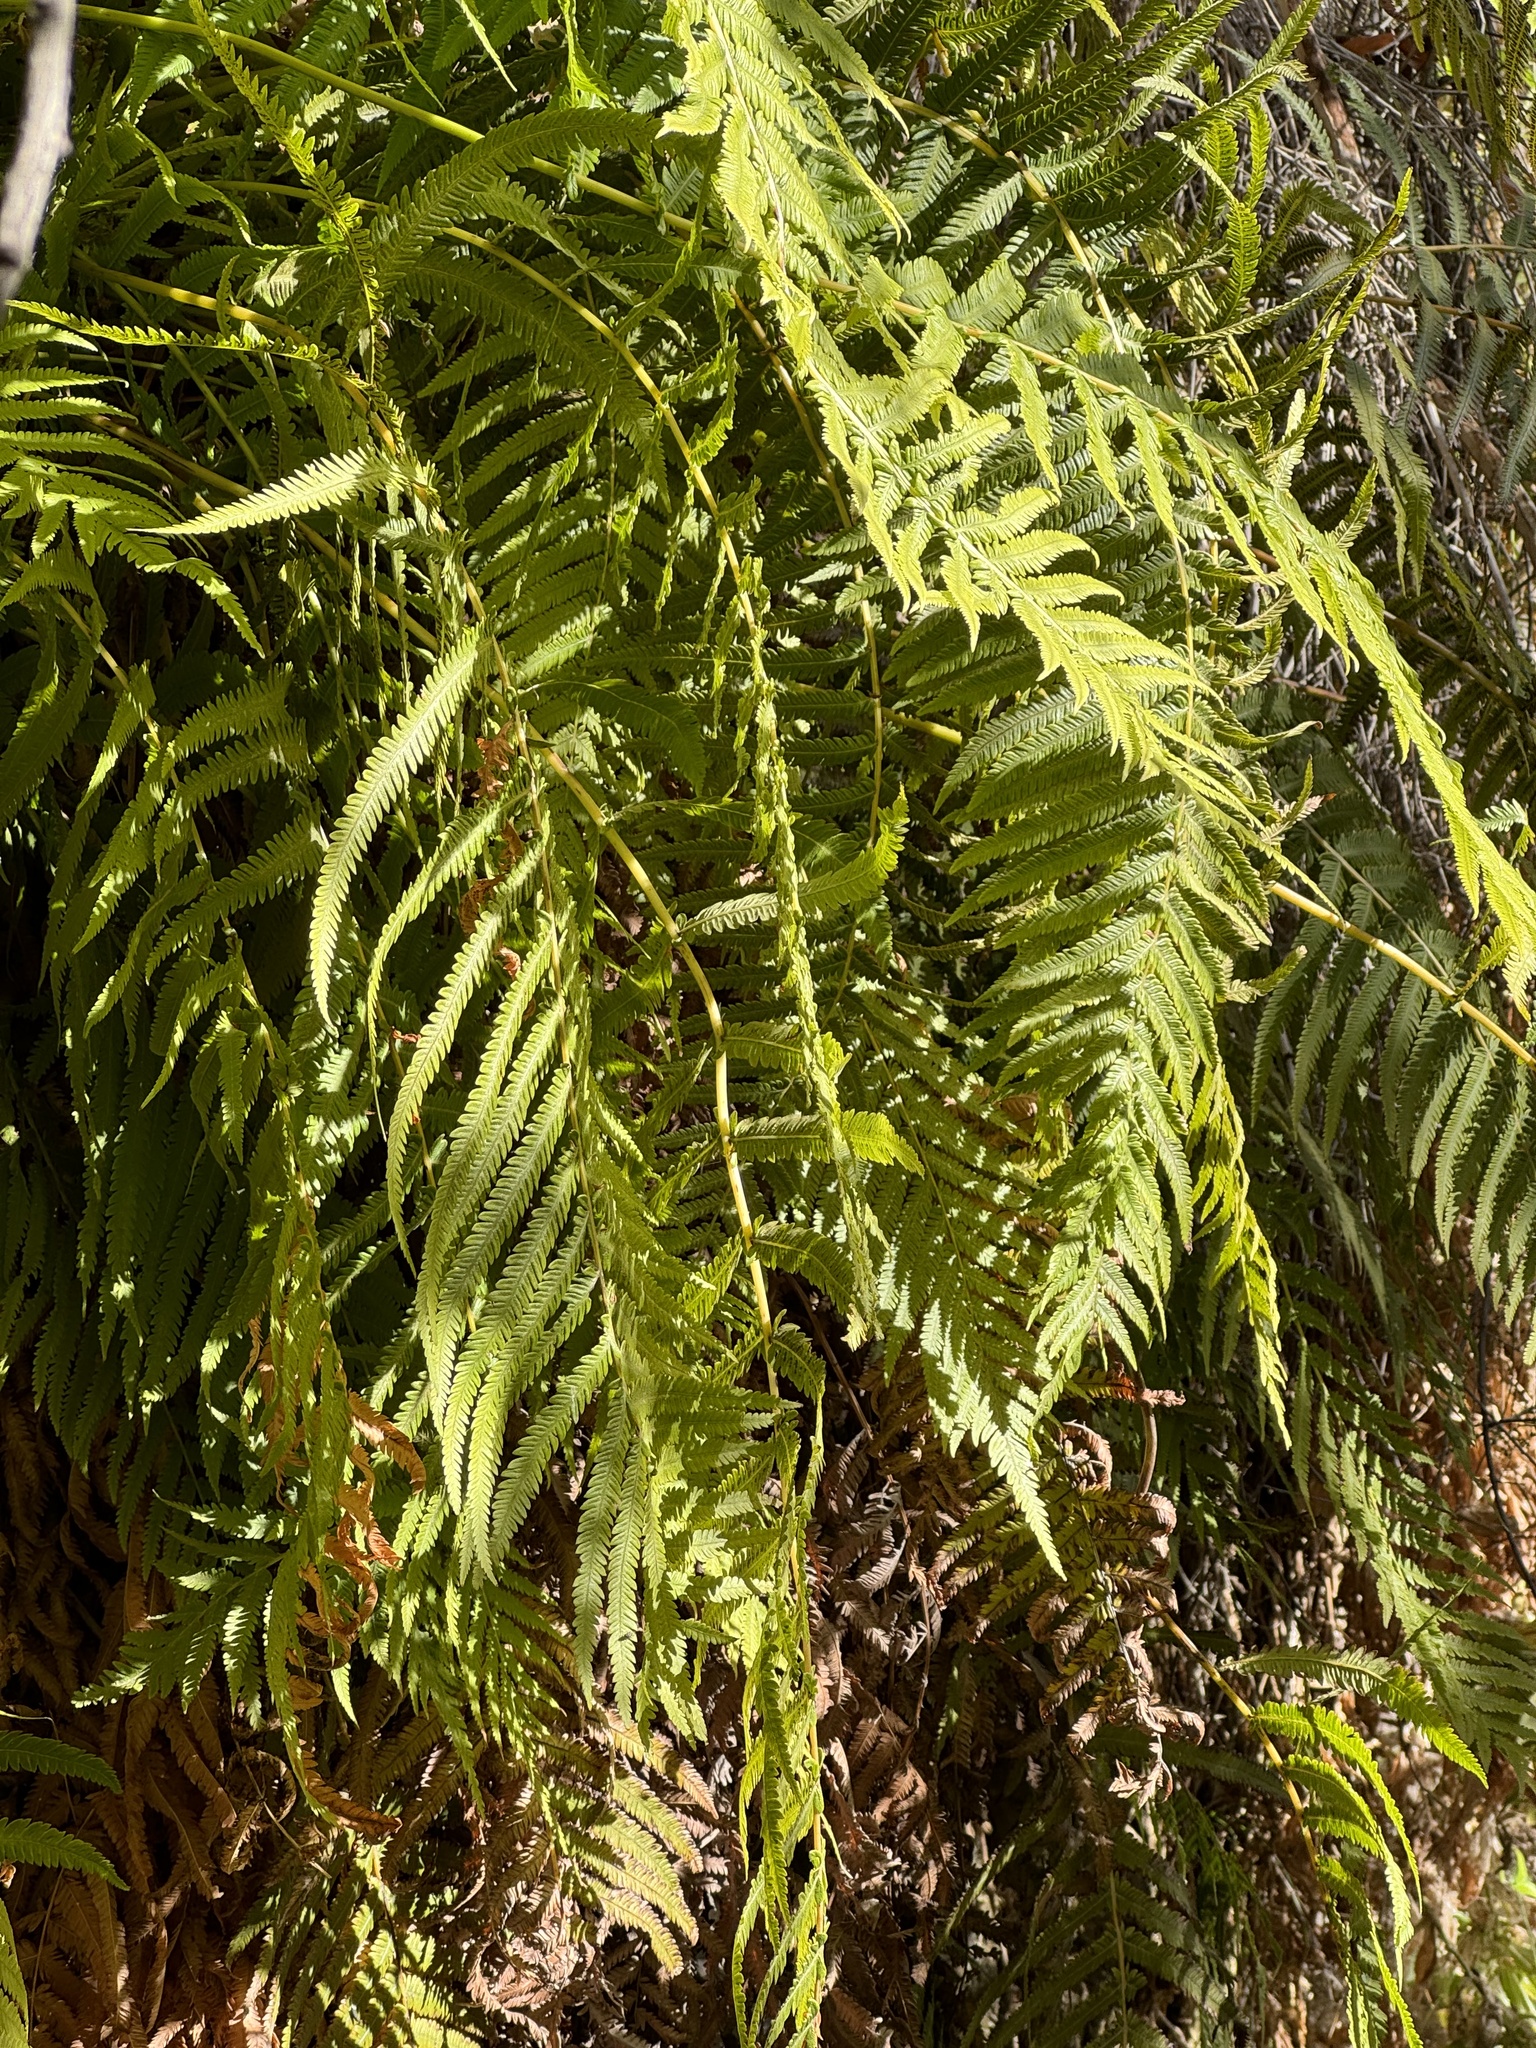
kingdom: Plantae
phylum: Tracheophyta
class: Polypodiopsida
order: Polypodiales
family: Thelypteridaceae
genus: Pelazoneuron
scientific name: Pelazoneuron puberulum
